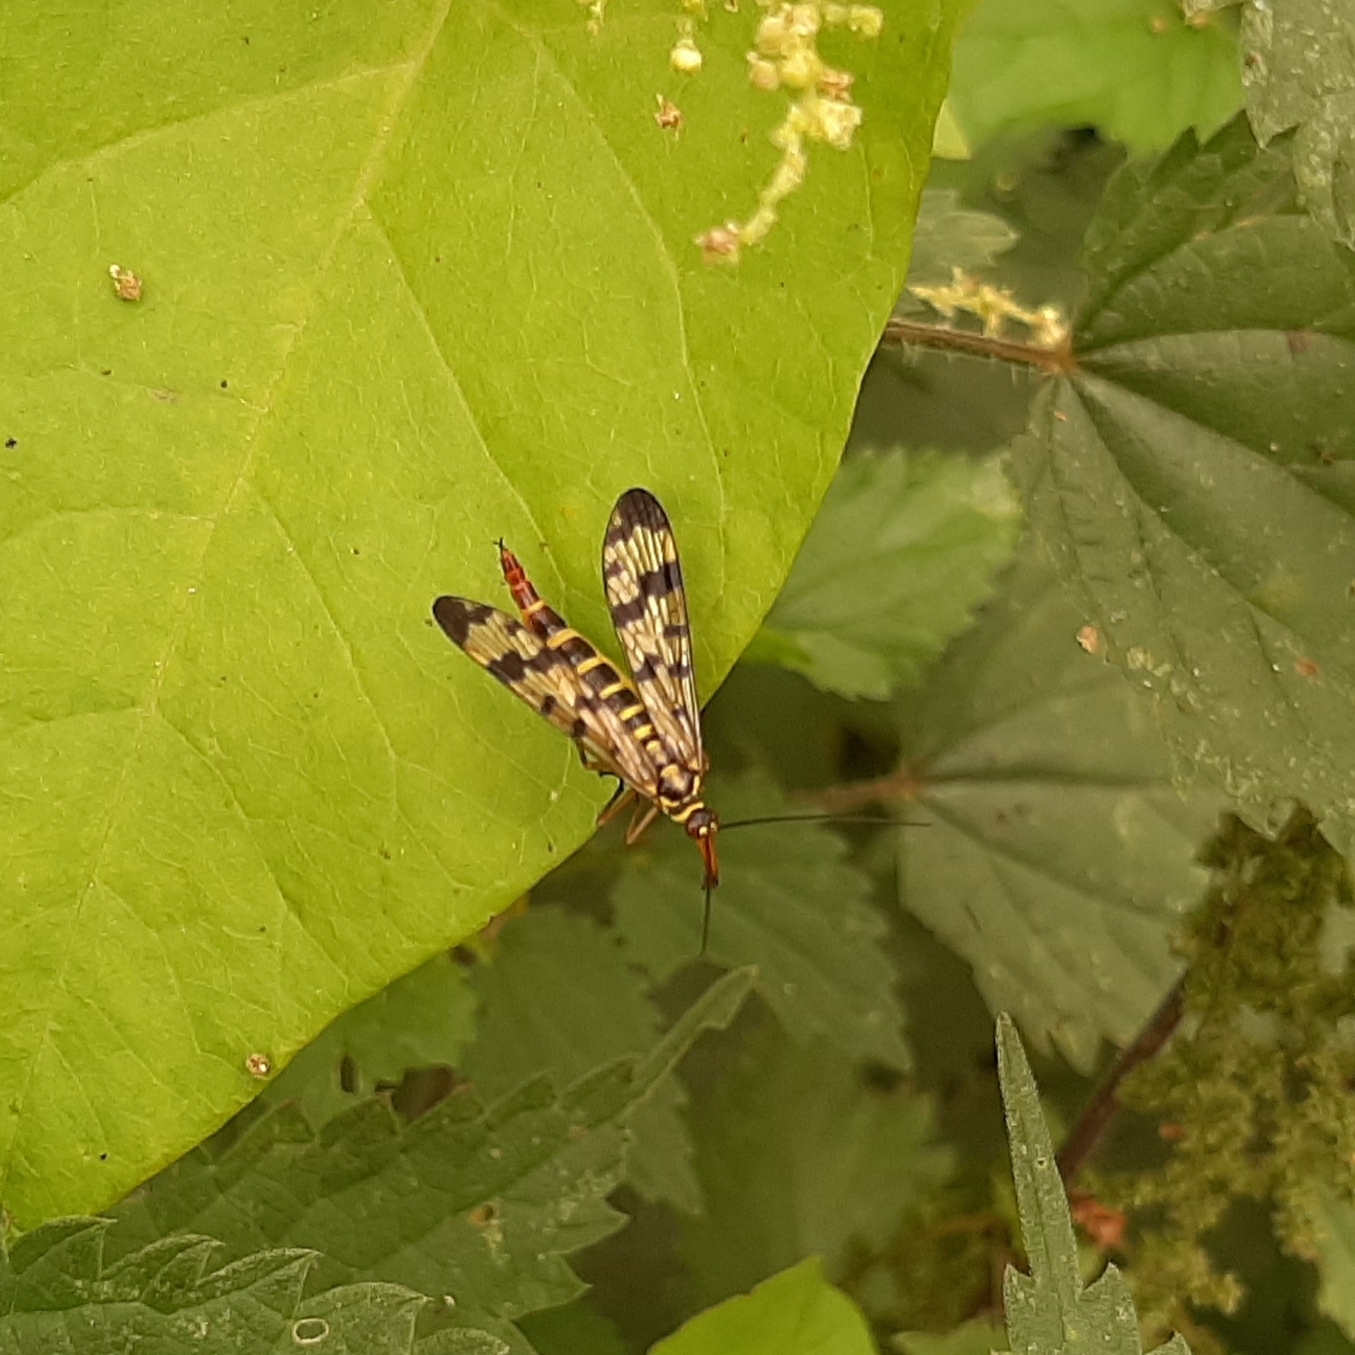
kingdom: Animalia
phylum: Arthropoda
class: Insecta
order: Mecoptera
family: Panorpidae
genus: Panorpa
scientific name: Panorpa communis
